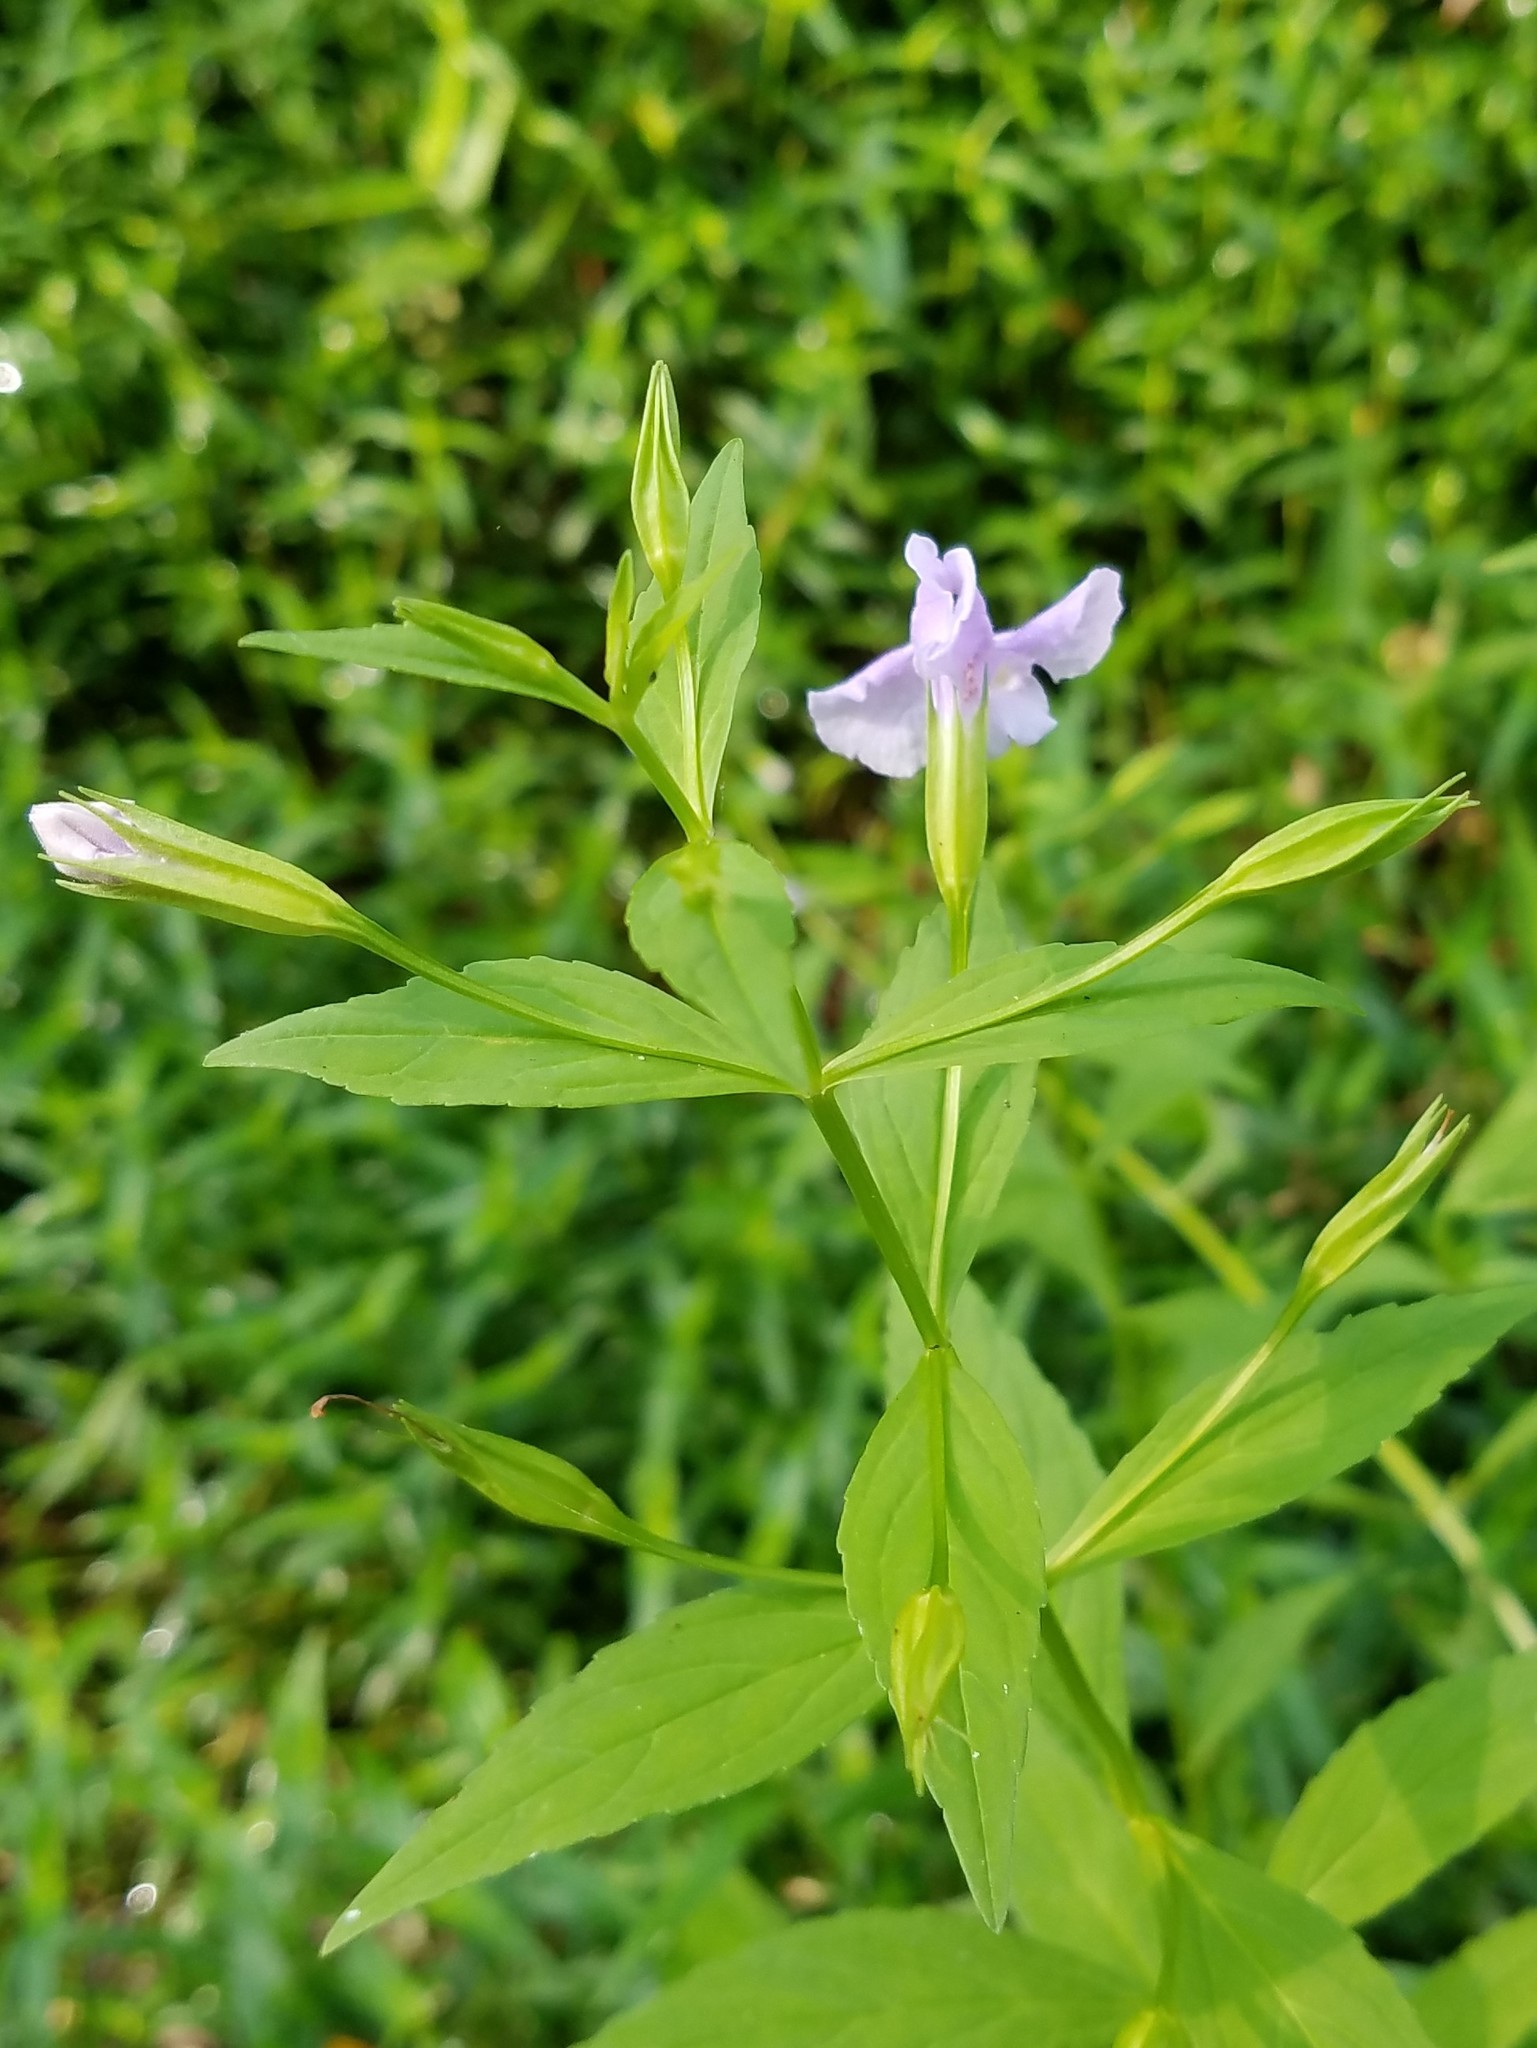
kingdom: Plantae
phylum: Tracheophyta
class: Magnoliopsida
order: Lamiales
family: Phrymaceae
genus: Mimulus
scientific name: Mimulus ringens
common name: Allegheny monkeyflower
